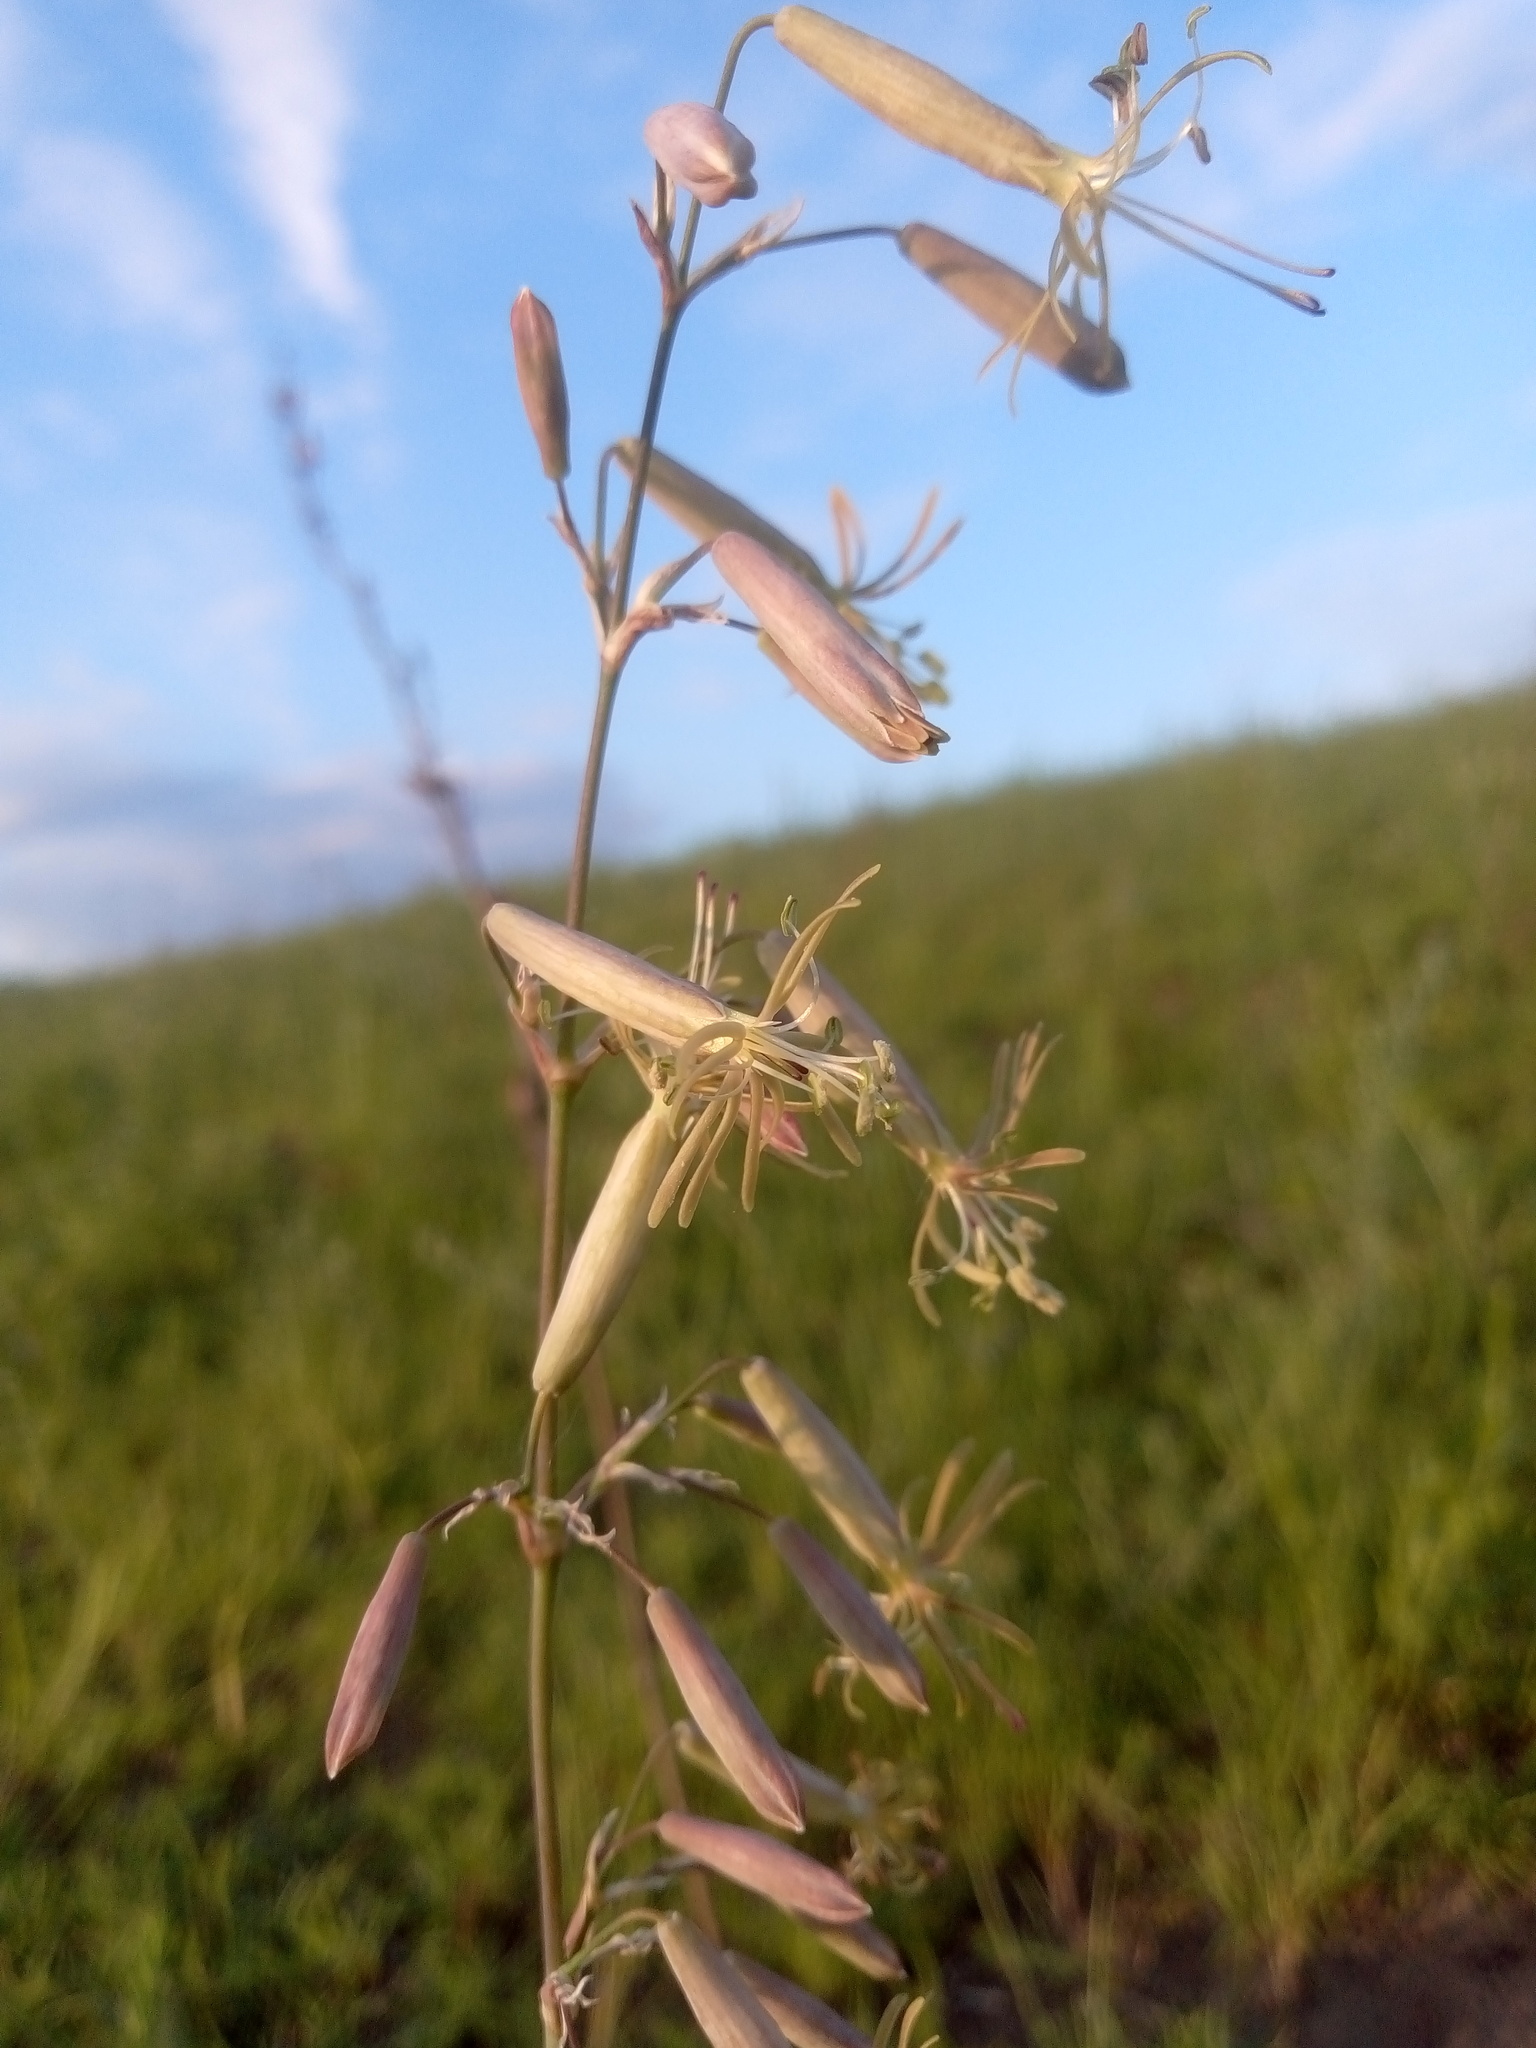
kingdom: Plantae
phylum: Tracheophyta
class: Magnoliopsida
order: Caryophyllales
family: Caryophyllaceae
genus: Silene
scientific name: Silene chlorantha
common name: Yellowgreen catchfly
